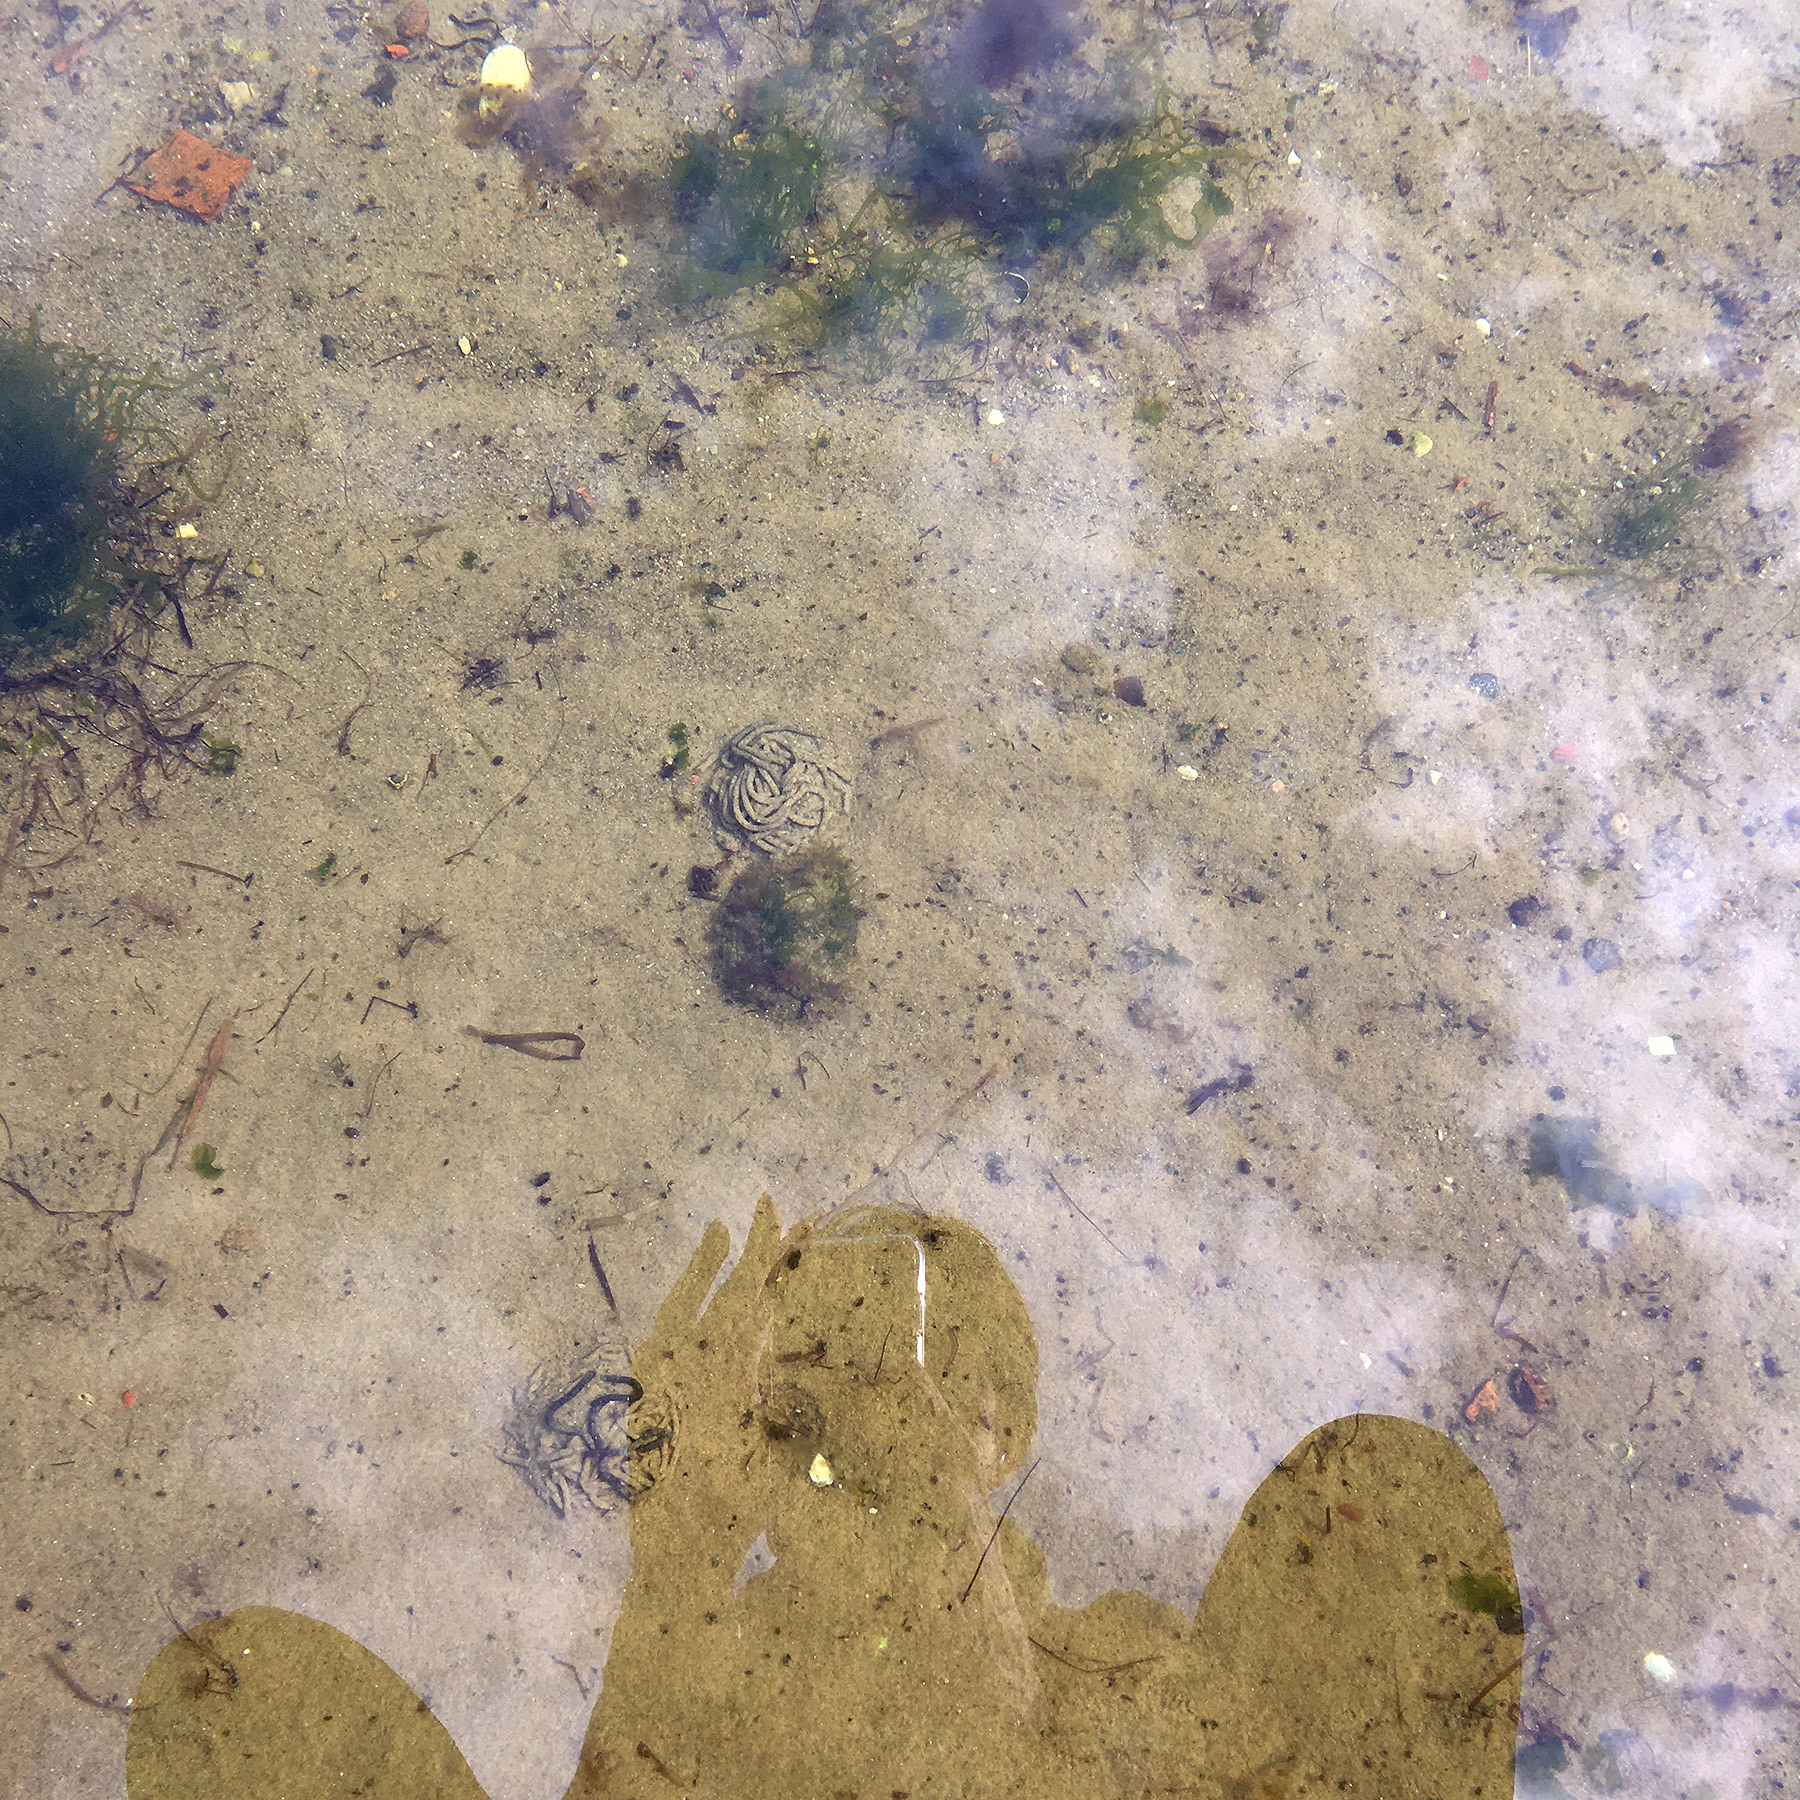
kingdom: Animalia
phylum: Annelida
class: Polychaeta
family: Arenicolidae
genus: Arenicola
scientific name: Arenicola marina
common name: Blow lugworm
